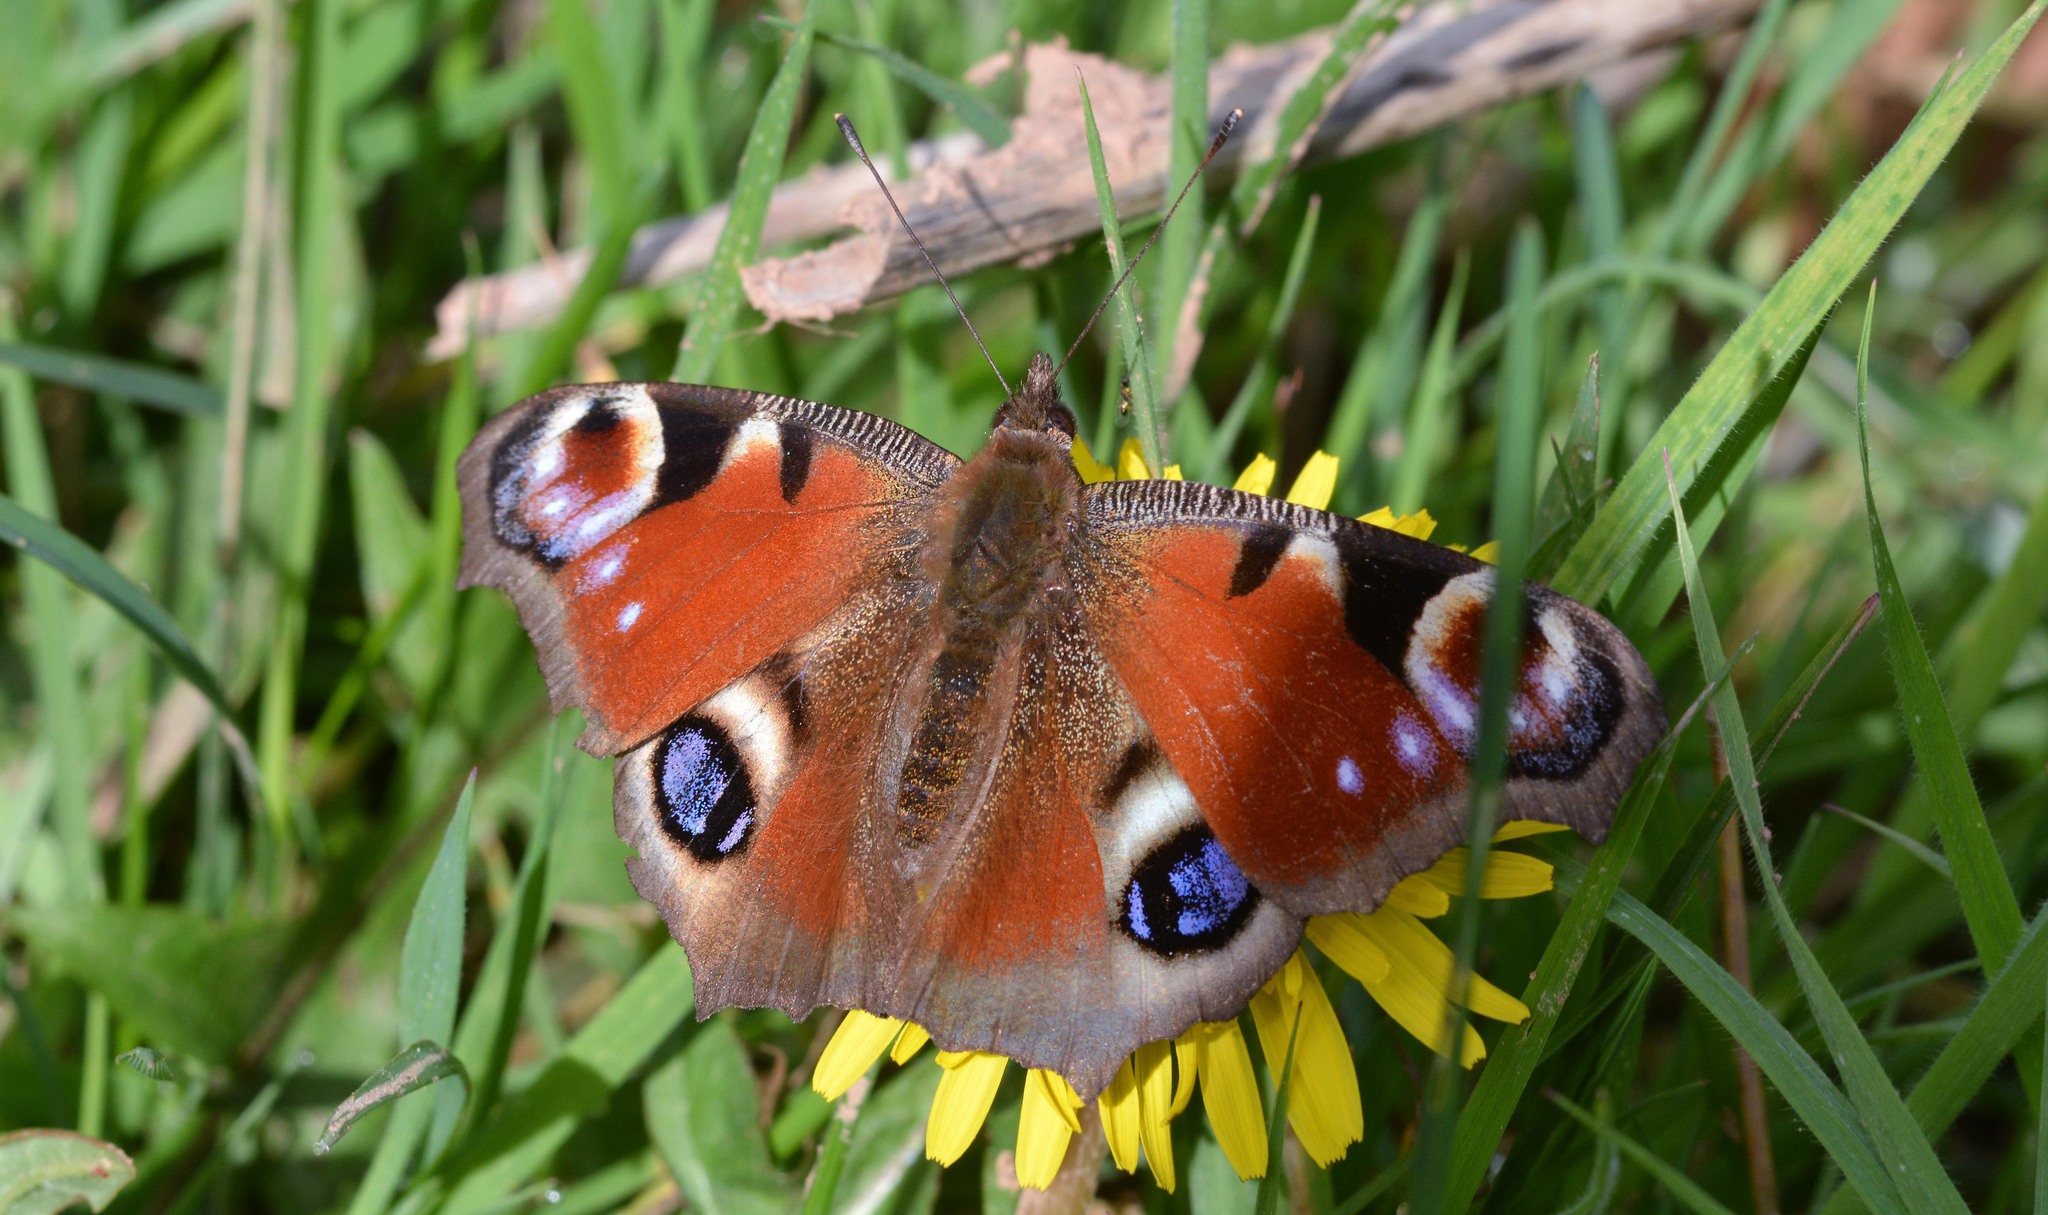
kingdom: Animalia
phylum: Arthropoda
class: Insecta
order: Lepidoptera
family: Nymphalidae
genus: Aglais
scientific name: Aglais io
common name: Peacock
